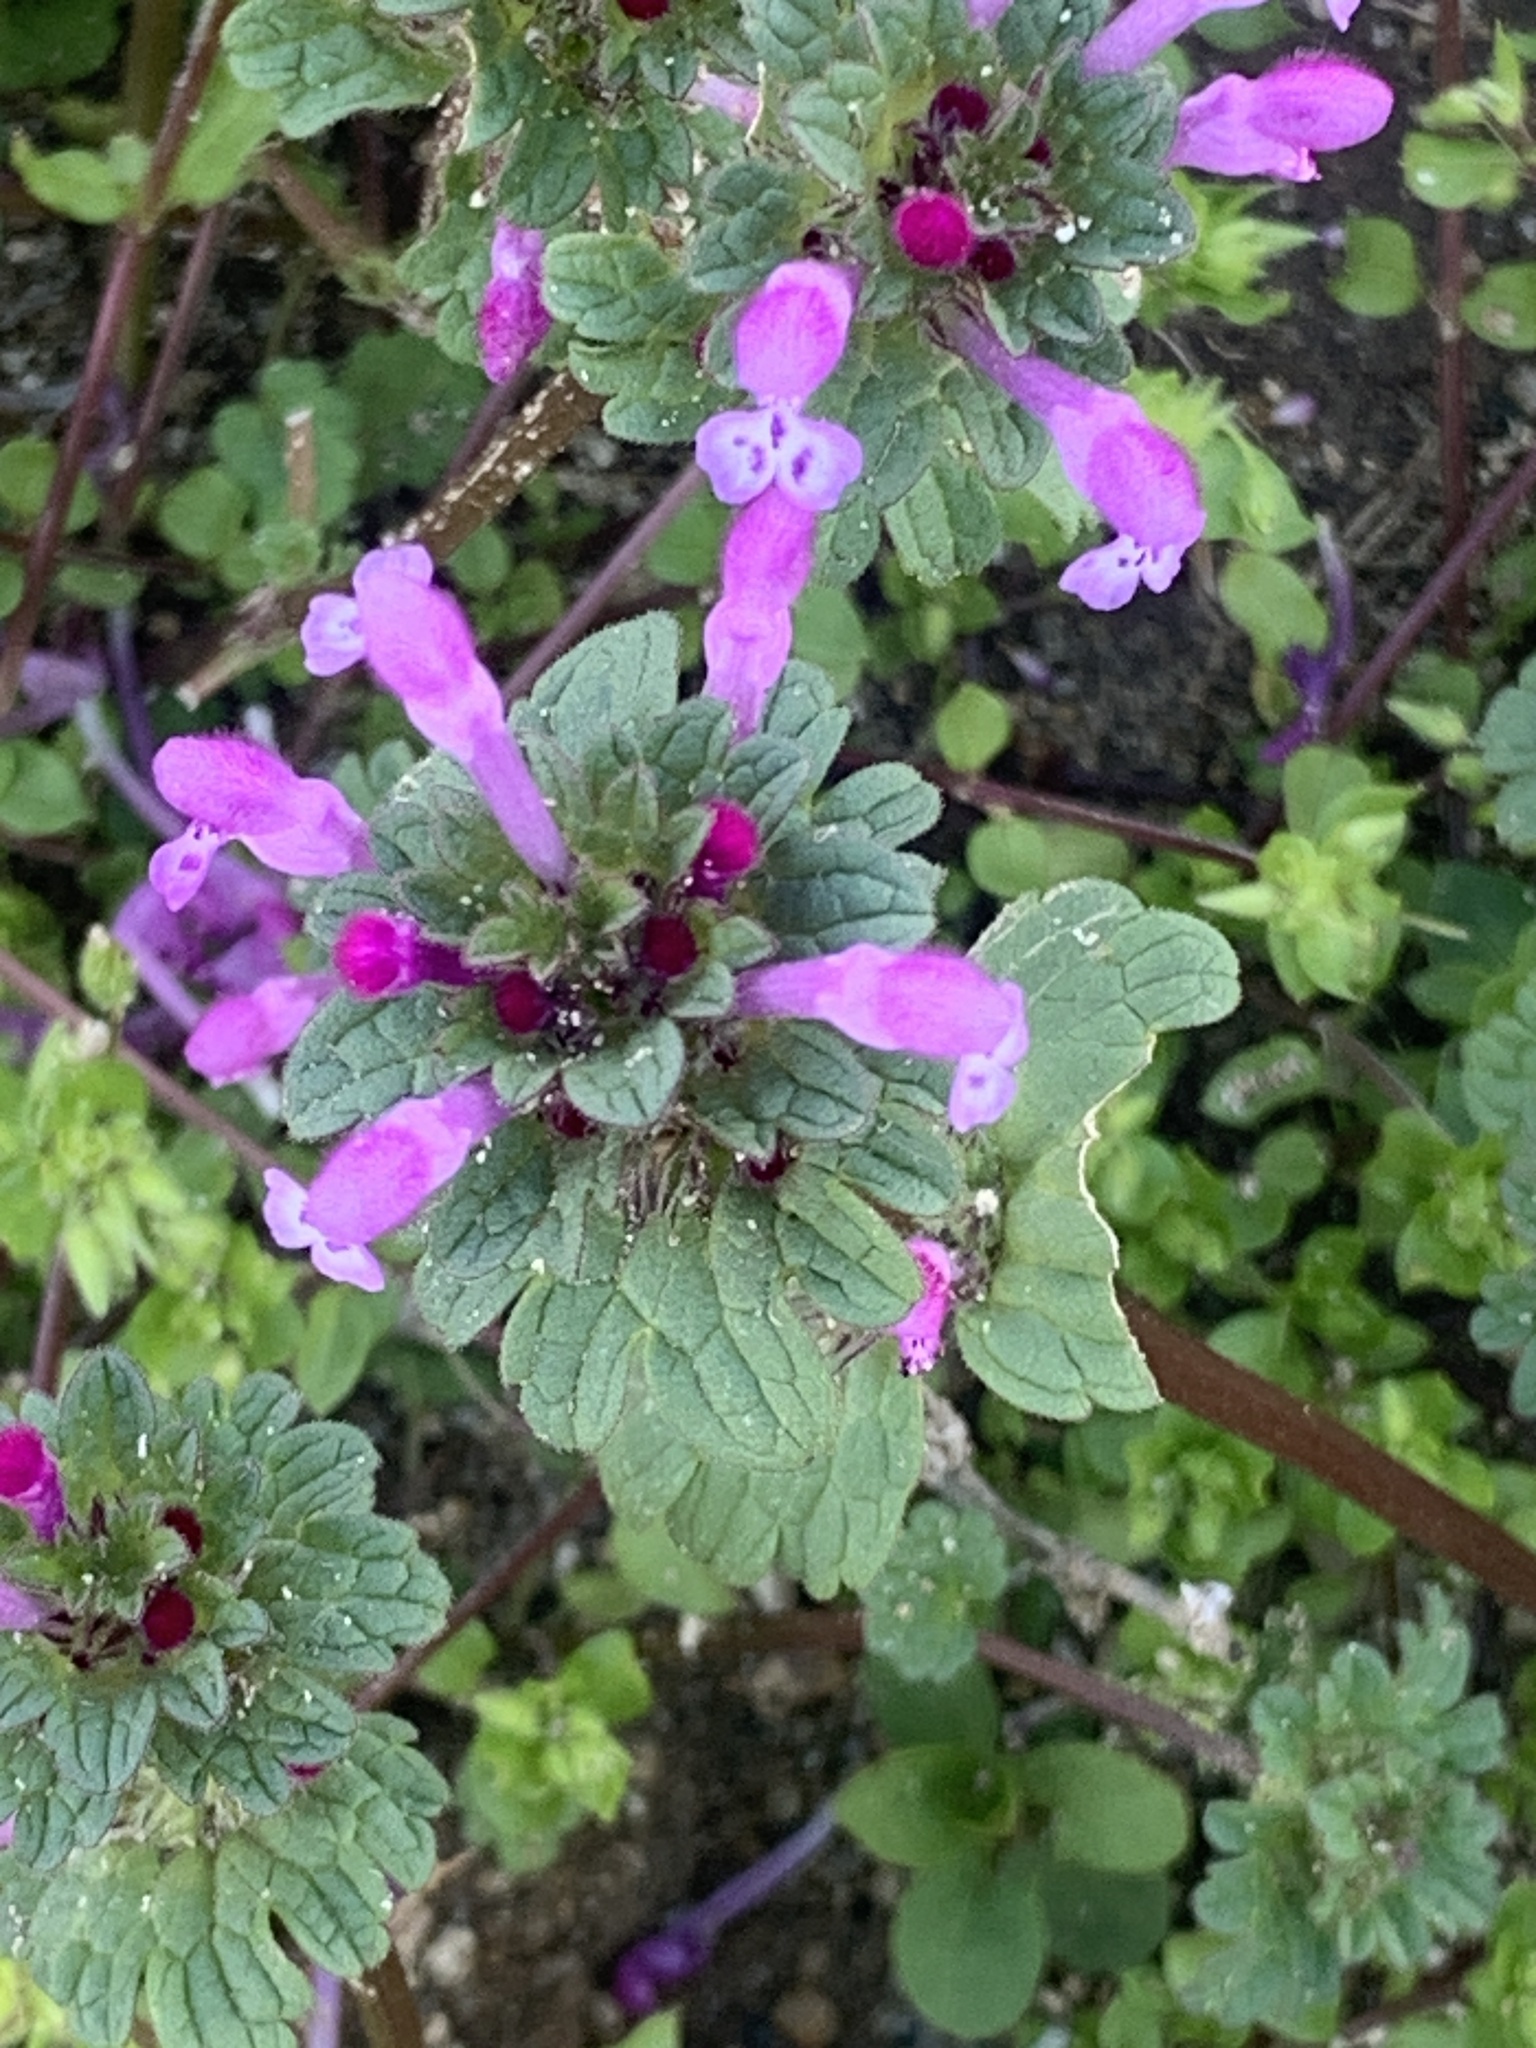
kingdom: Plantae
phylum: Tracheophyta
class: Magnoliopsida
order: Lamiales
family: Lamiaceae
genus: Lamium
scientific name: Lamium amplexicaule
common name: Henbit dead-nettle
